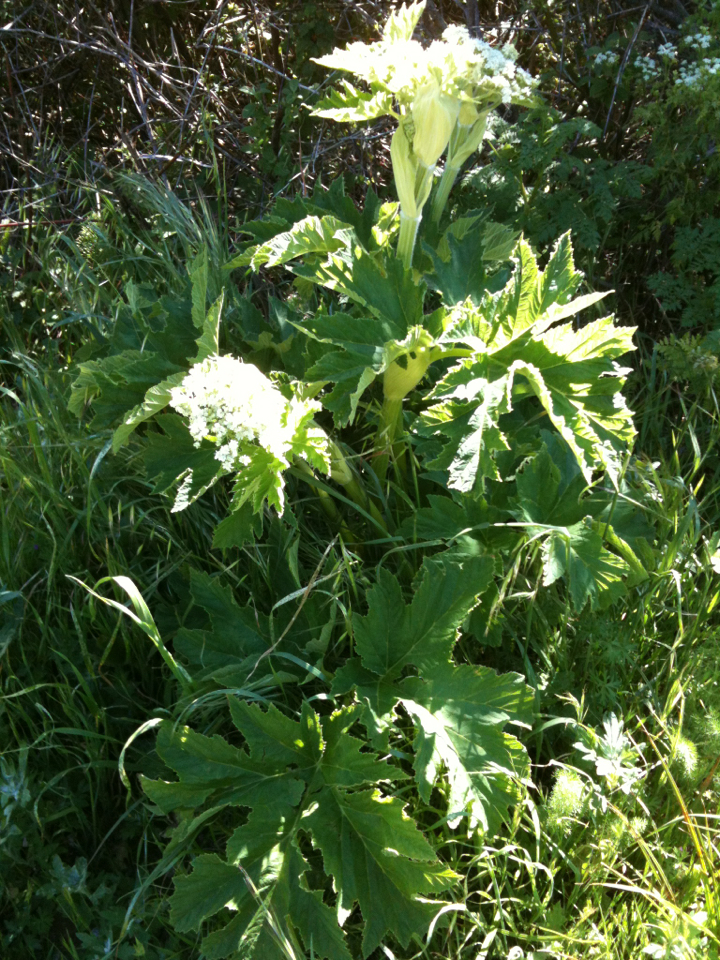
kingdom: Plantae
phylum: Tracheophyta
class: Magnoliopsida
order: Apiales
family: Apiaceae
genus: Heracleum
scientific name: Heracleum maximum
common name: American cow parsnip
